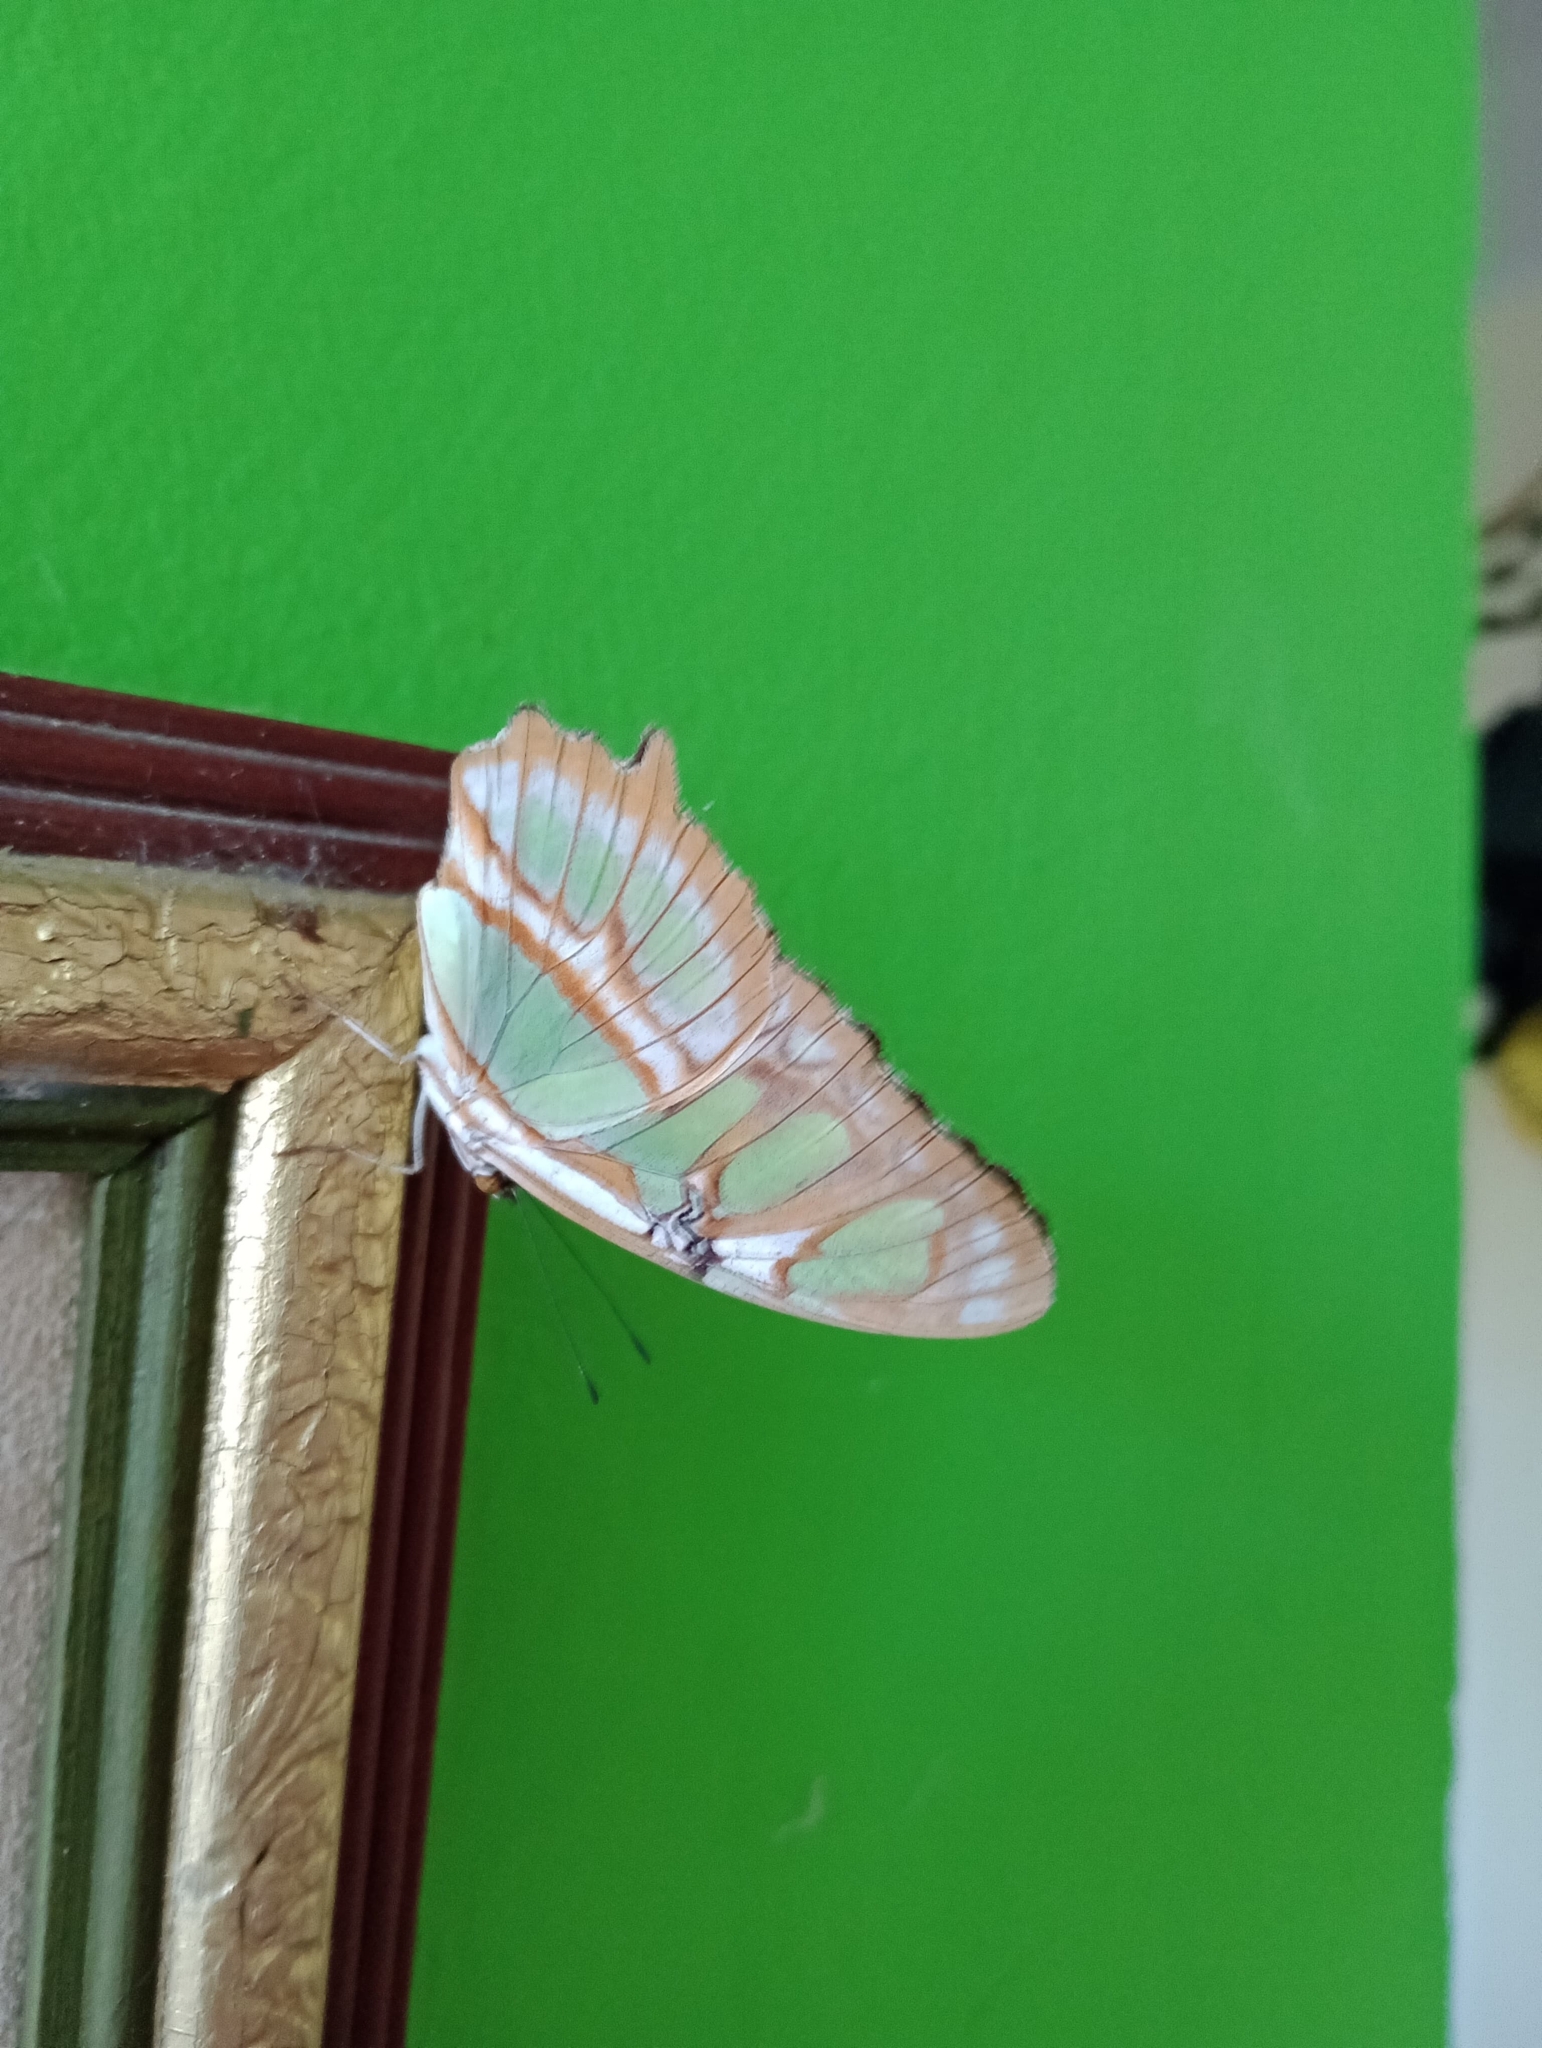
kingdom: Animalia
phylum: Arthropoda
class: Insecta
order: Lepidoptera
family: Nymphalidae
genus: Siproeta
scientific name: Siproeta stelenes
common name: Malachite
